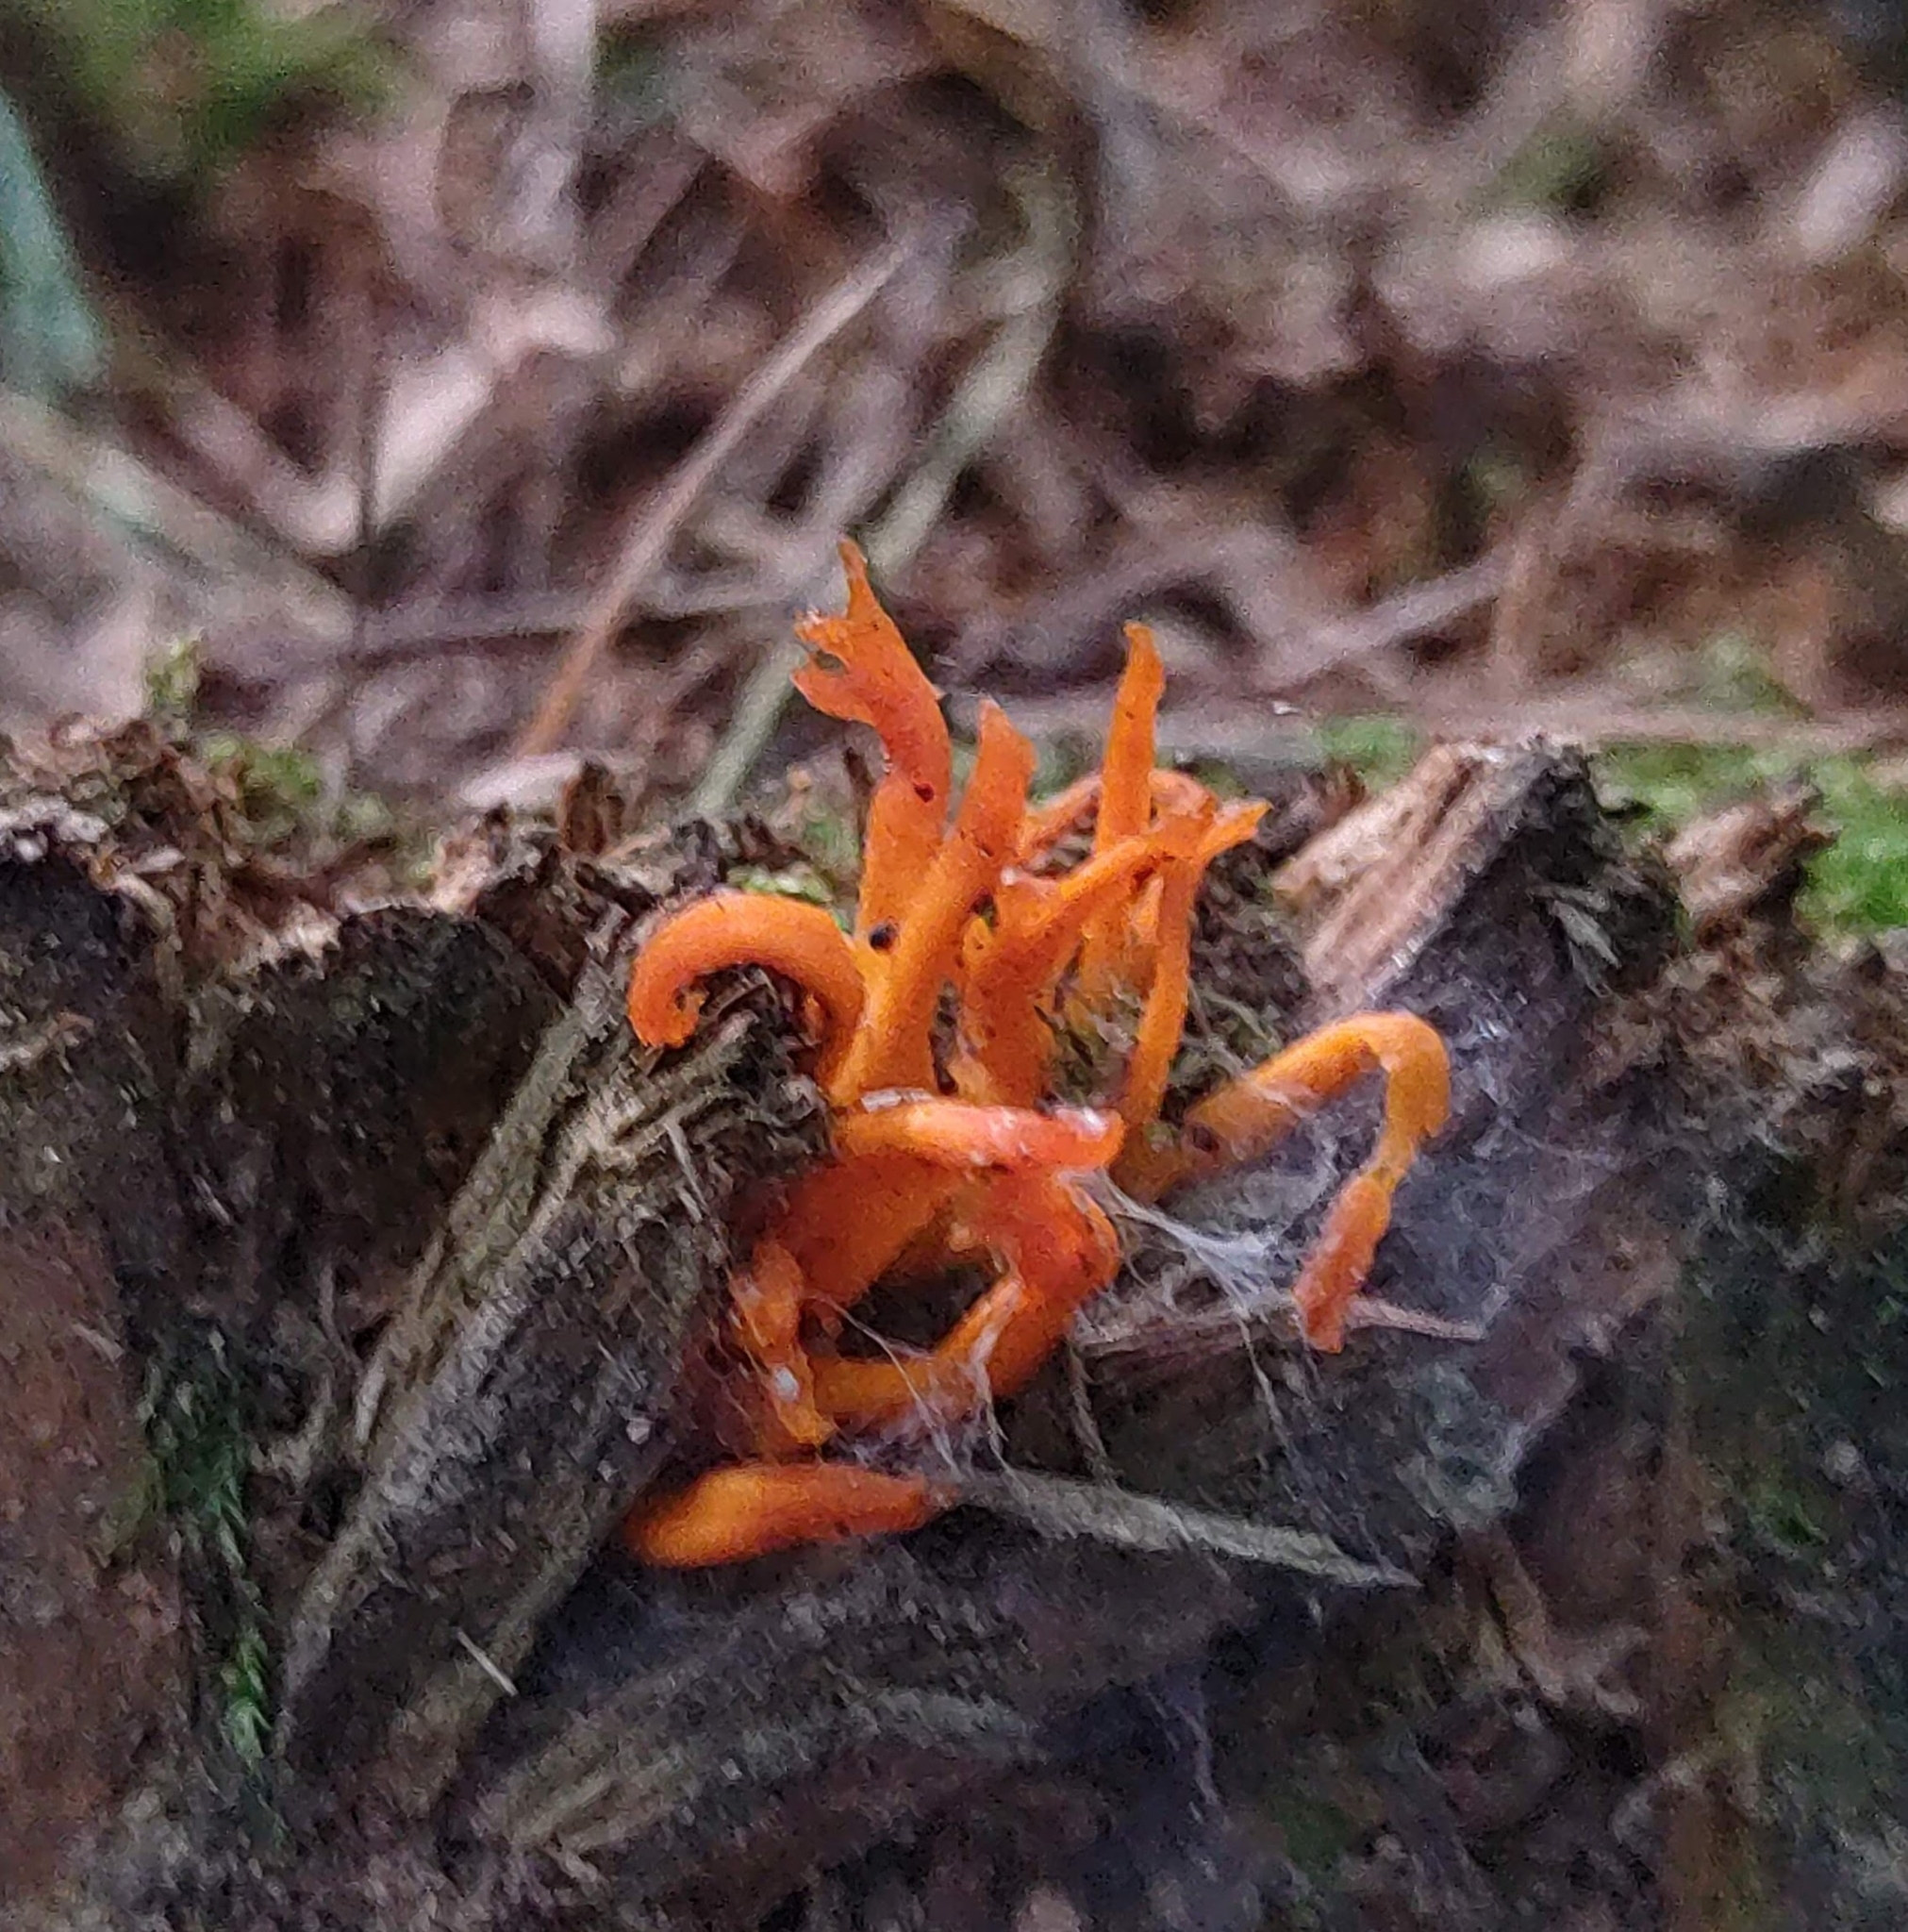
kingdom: Fungi
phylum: Basidiomycota
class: Dacrymycetes
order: Dacrymycetales
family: Dacrymycetaceae
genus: Calocera
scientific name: Calocera viscosa
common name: Yellow stagshorn
